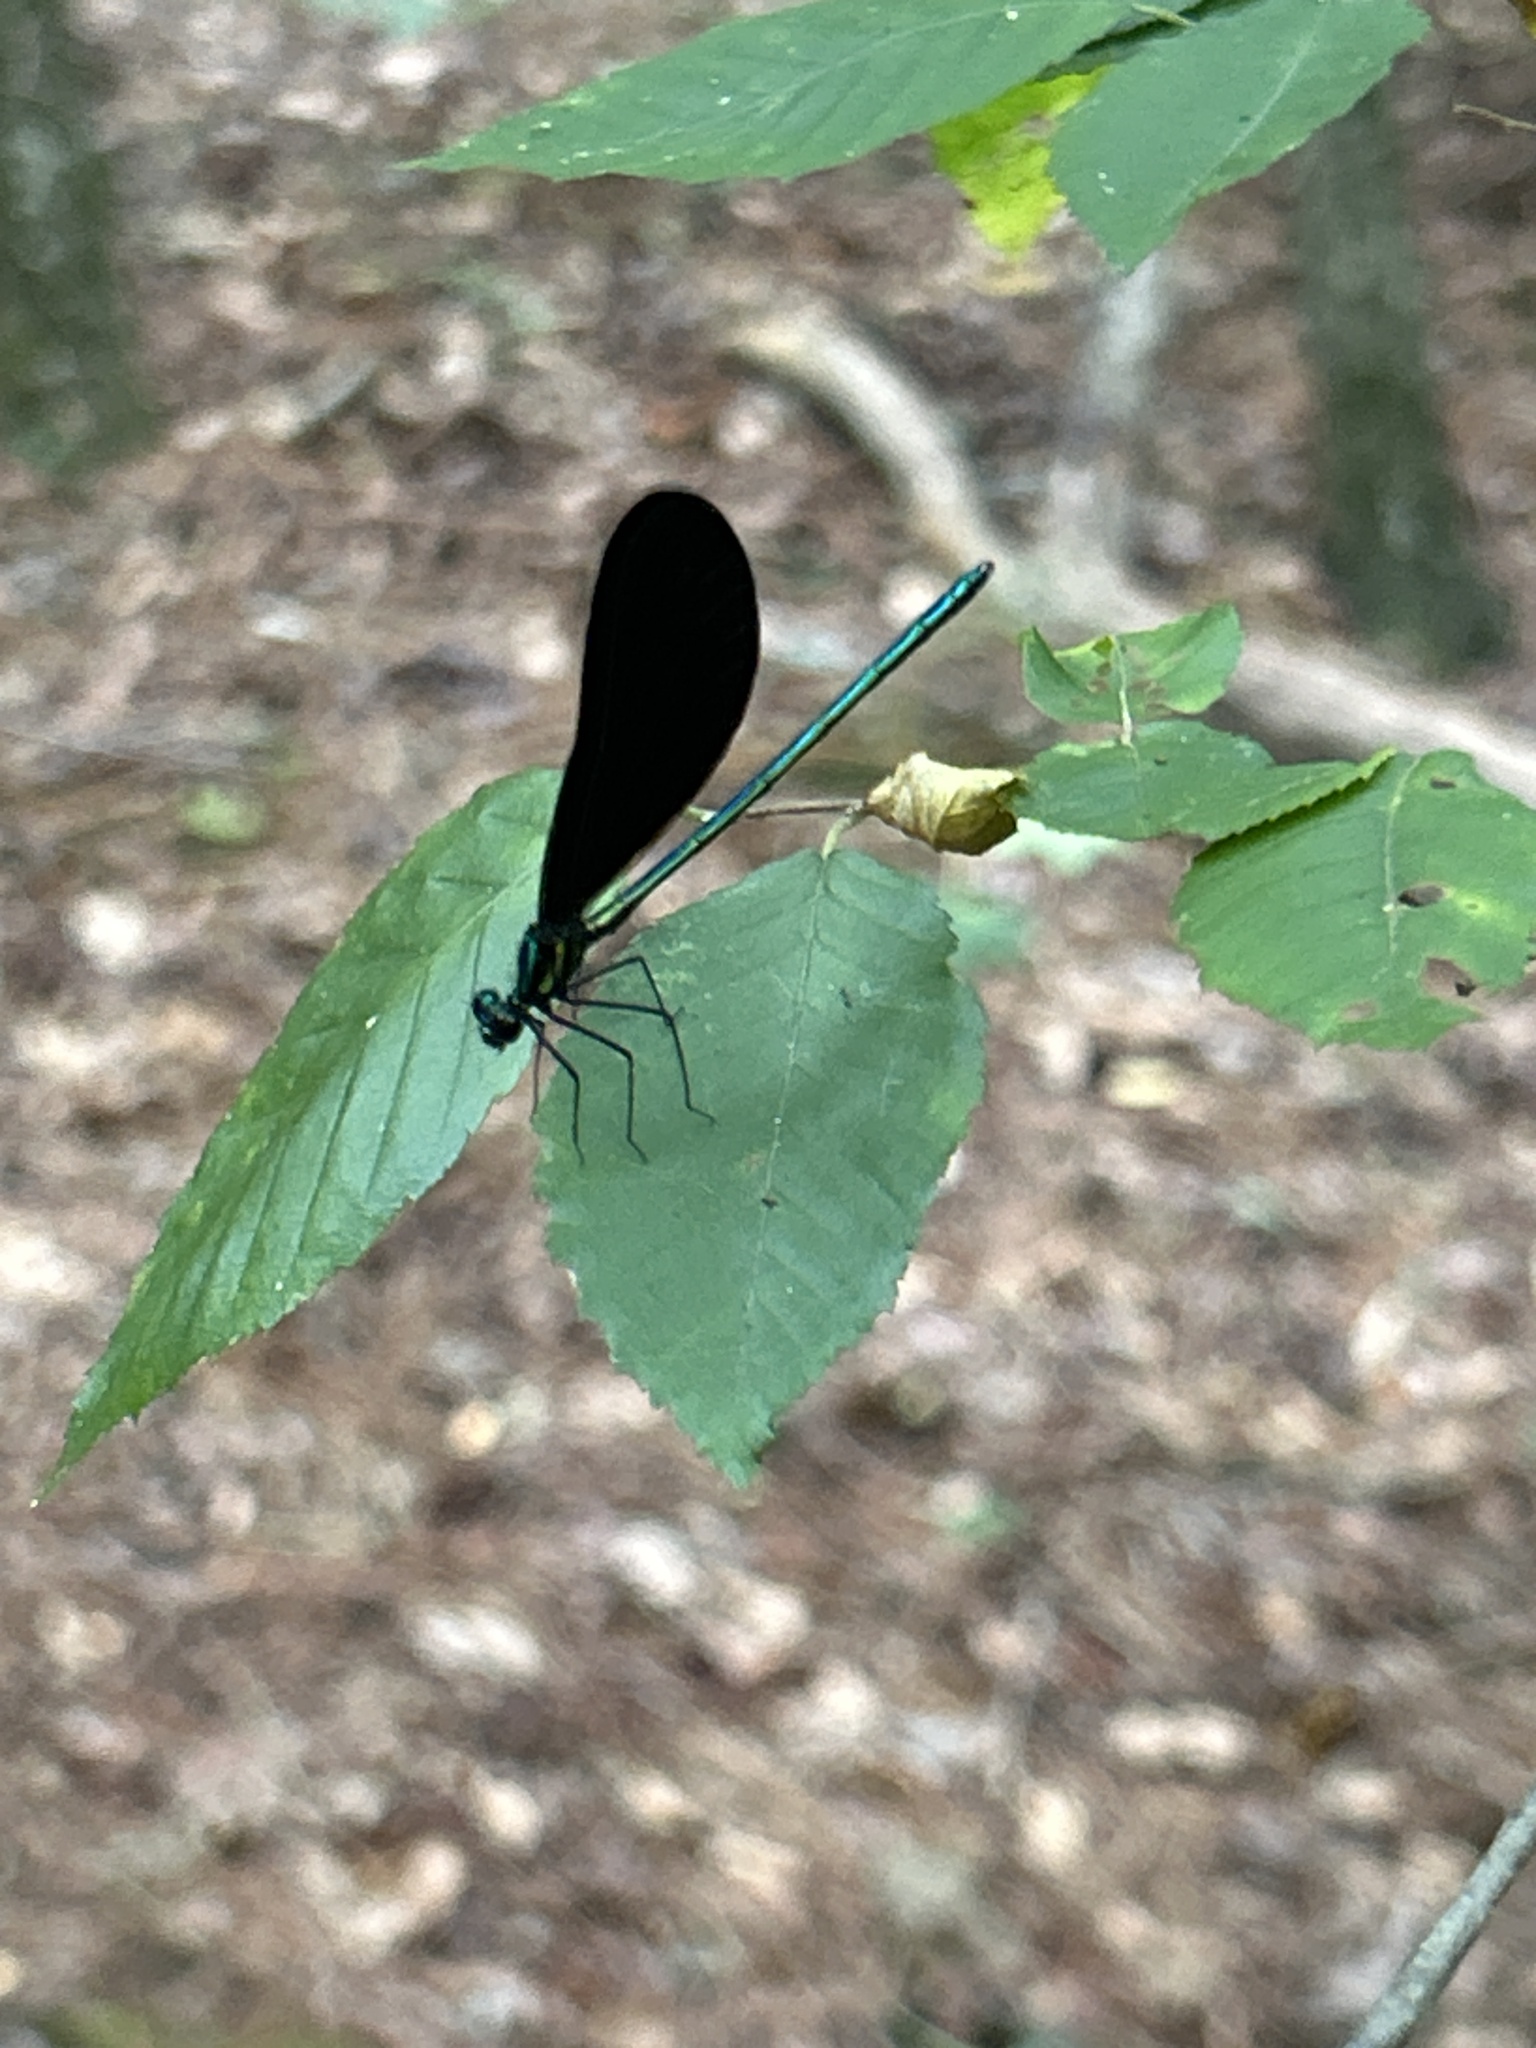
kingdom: Animalia
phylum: Arthropoda
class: Insecta
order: Odonata
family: Calopterygidae
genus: Calopteryx
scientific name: Calopteryx maculata
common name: Ebony jewelwing
